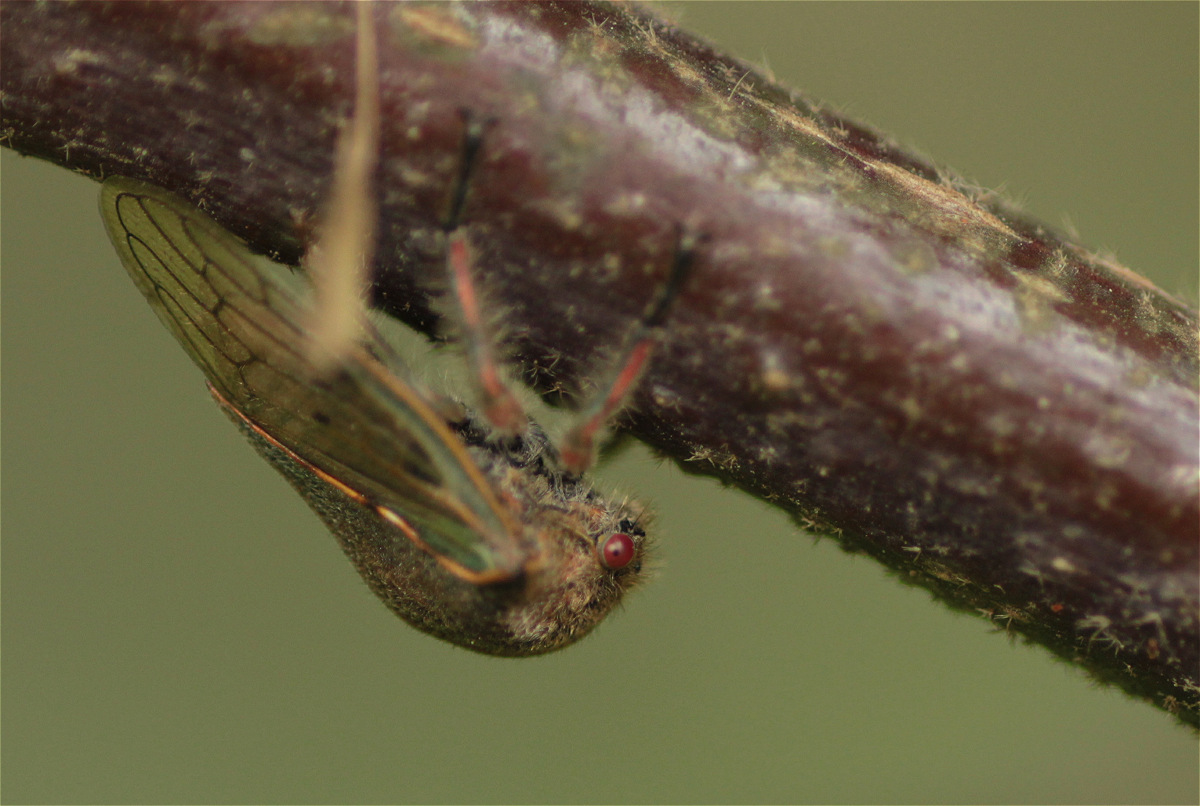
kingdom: Animalia
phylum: Arthropoda
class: Insecta
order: Hemiptera
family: Membracidae
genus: Metcalfiella
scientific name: Metcalfiella jaramillorum
